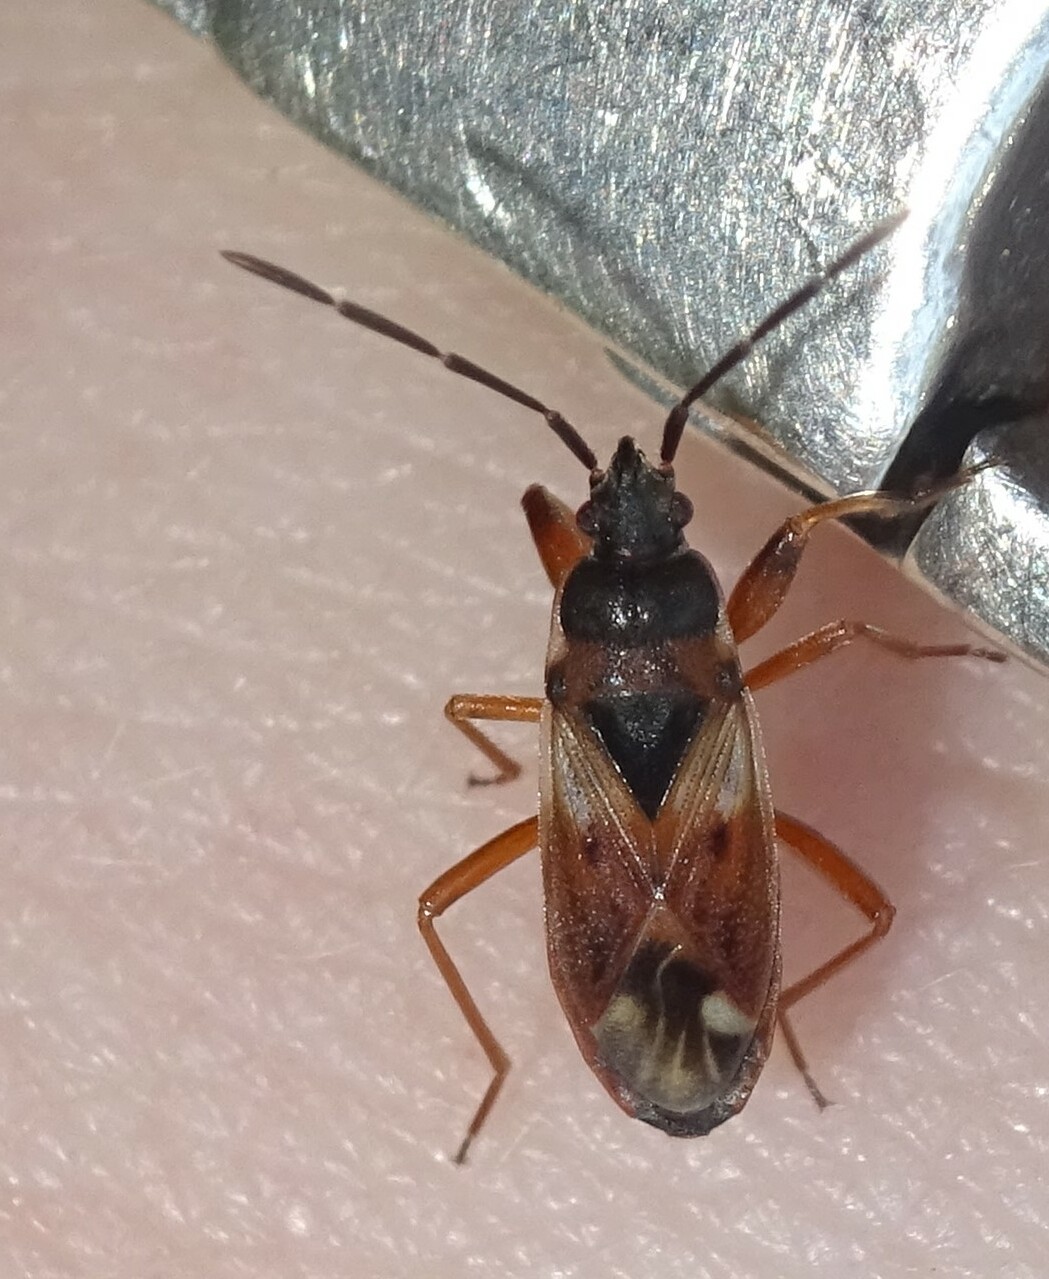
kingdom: Animalia
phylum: Arthropoda
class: Insecta
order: Hemiptera
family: Rhyparochromidae
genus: Eremocoris
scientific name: Eremocoris abietis
